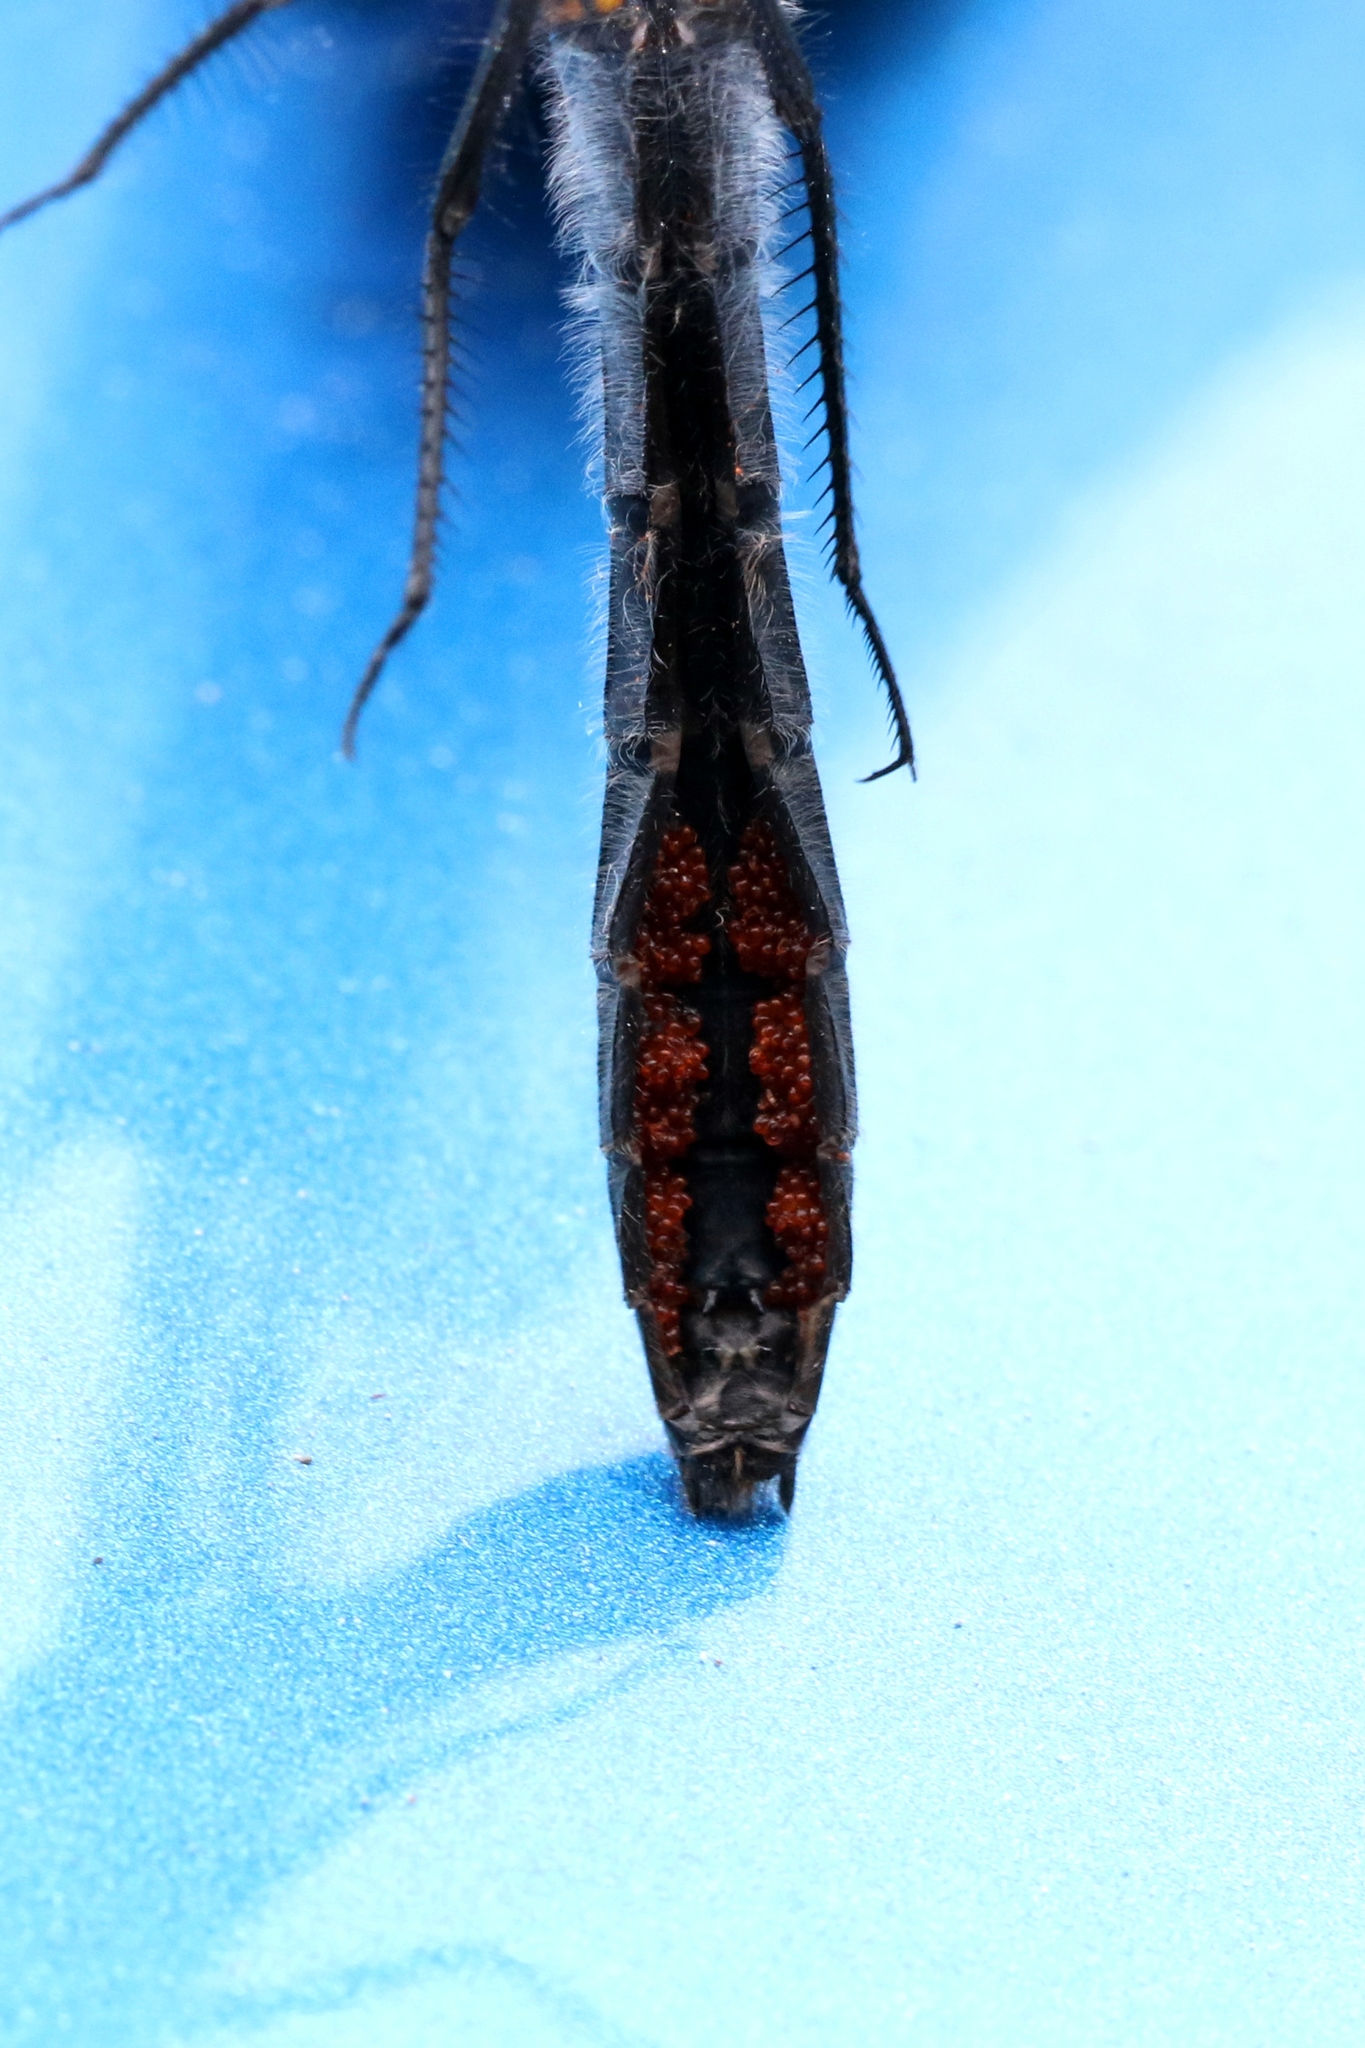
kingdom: Animalia
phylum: Arthropoda
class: Insecta
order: Odonata
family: Libellulidae
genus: Leucorrhinia
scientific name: Leucorrhinia intacta
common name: Dot-tailed whiteface
